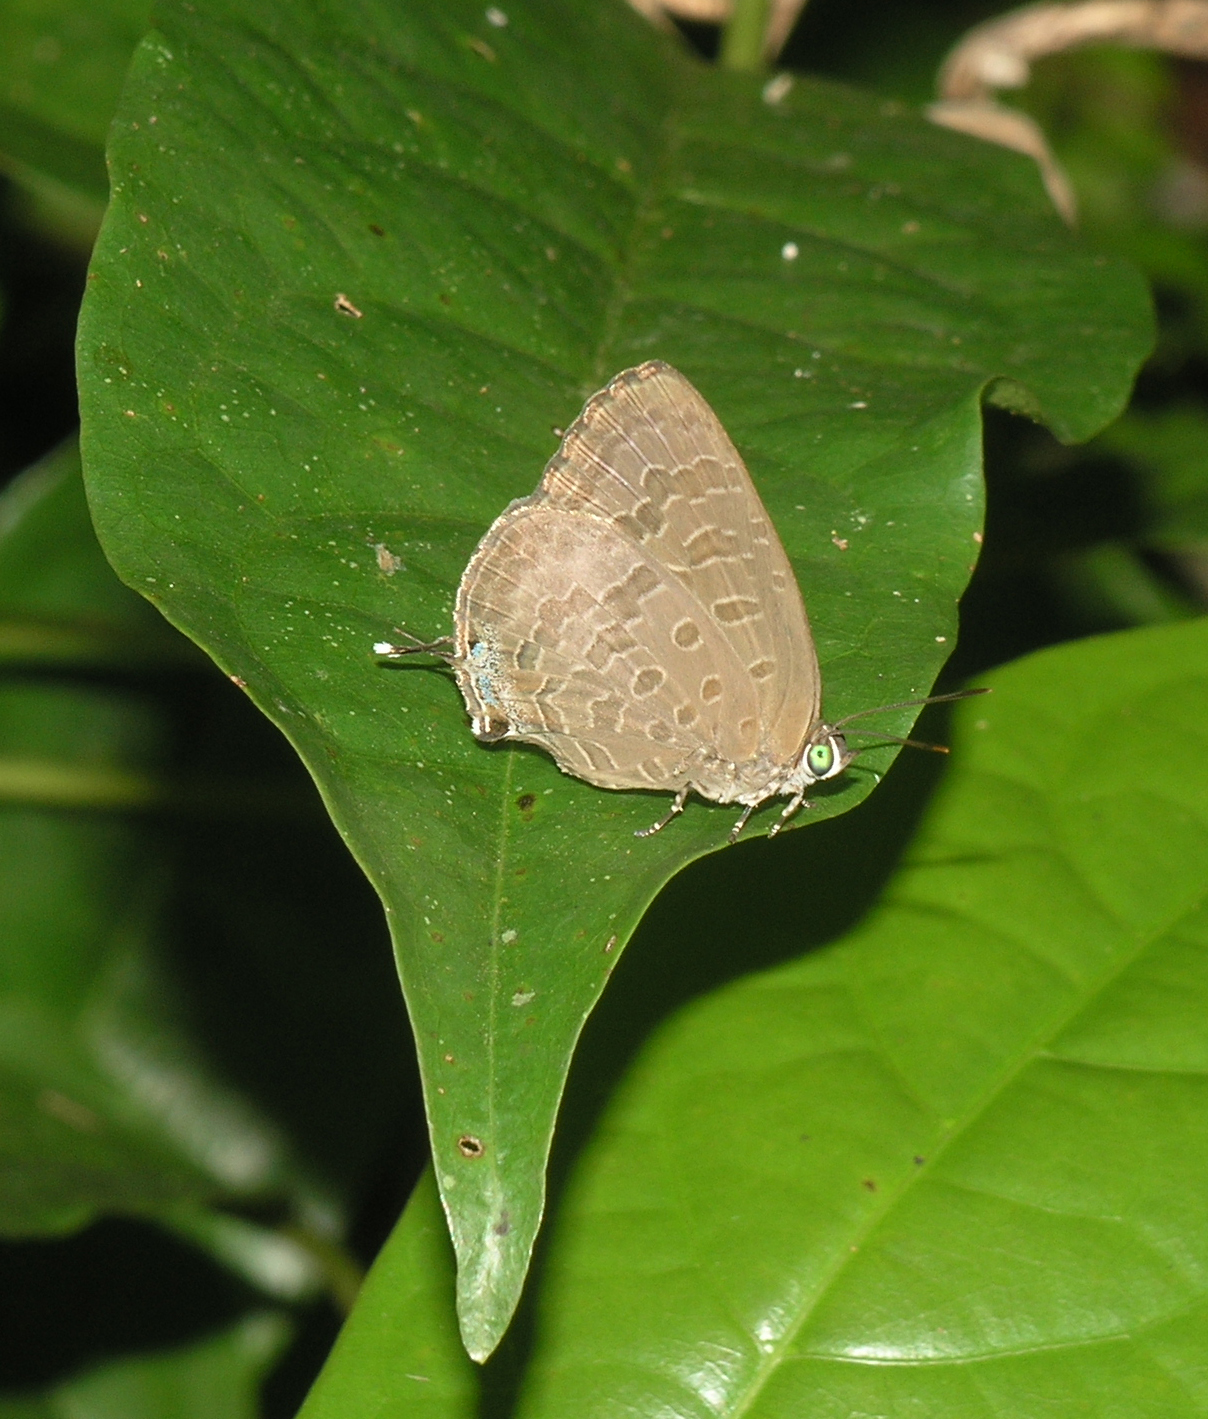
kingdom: Animalia
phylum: Arthropoda
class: Insecta
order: Lepidoptera
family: Lycaenidae
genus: Arhopala
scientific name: Arhopala aida
